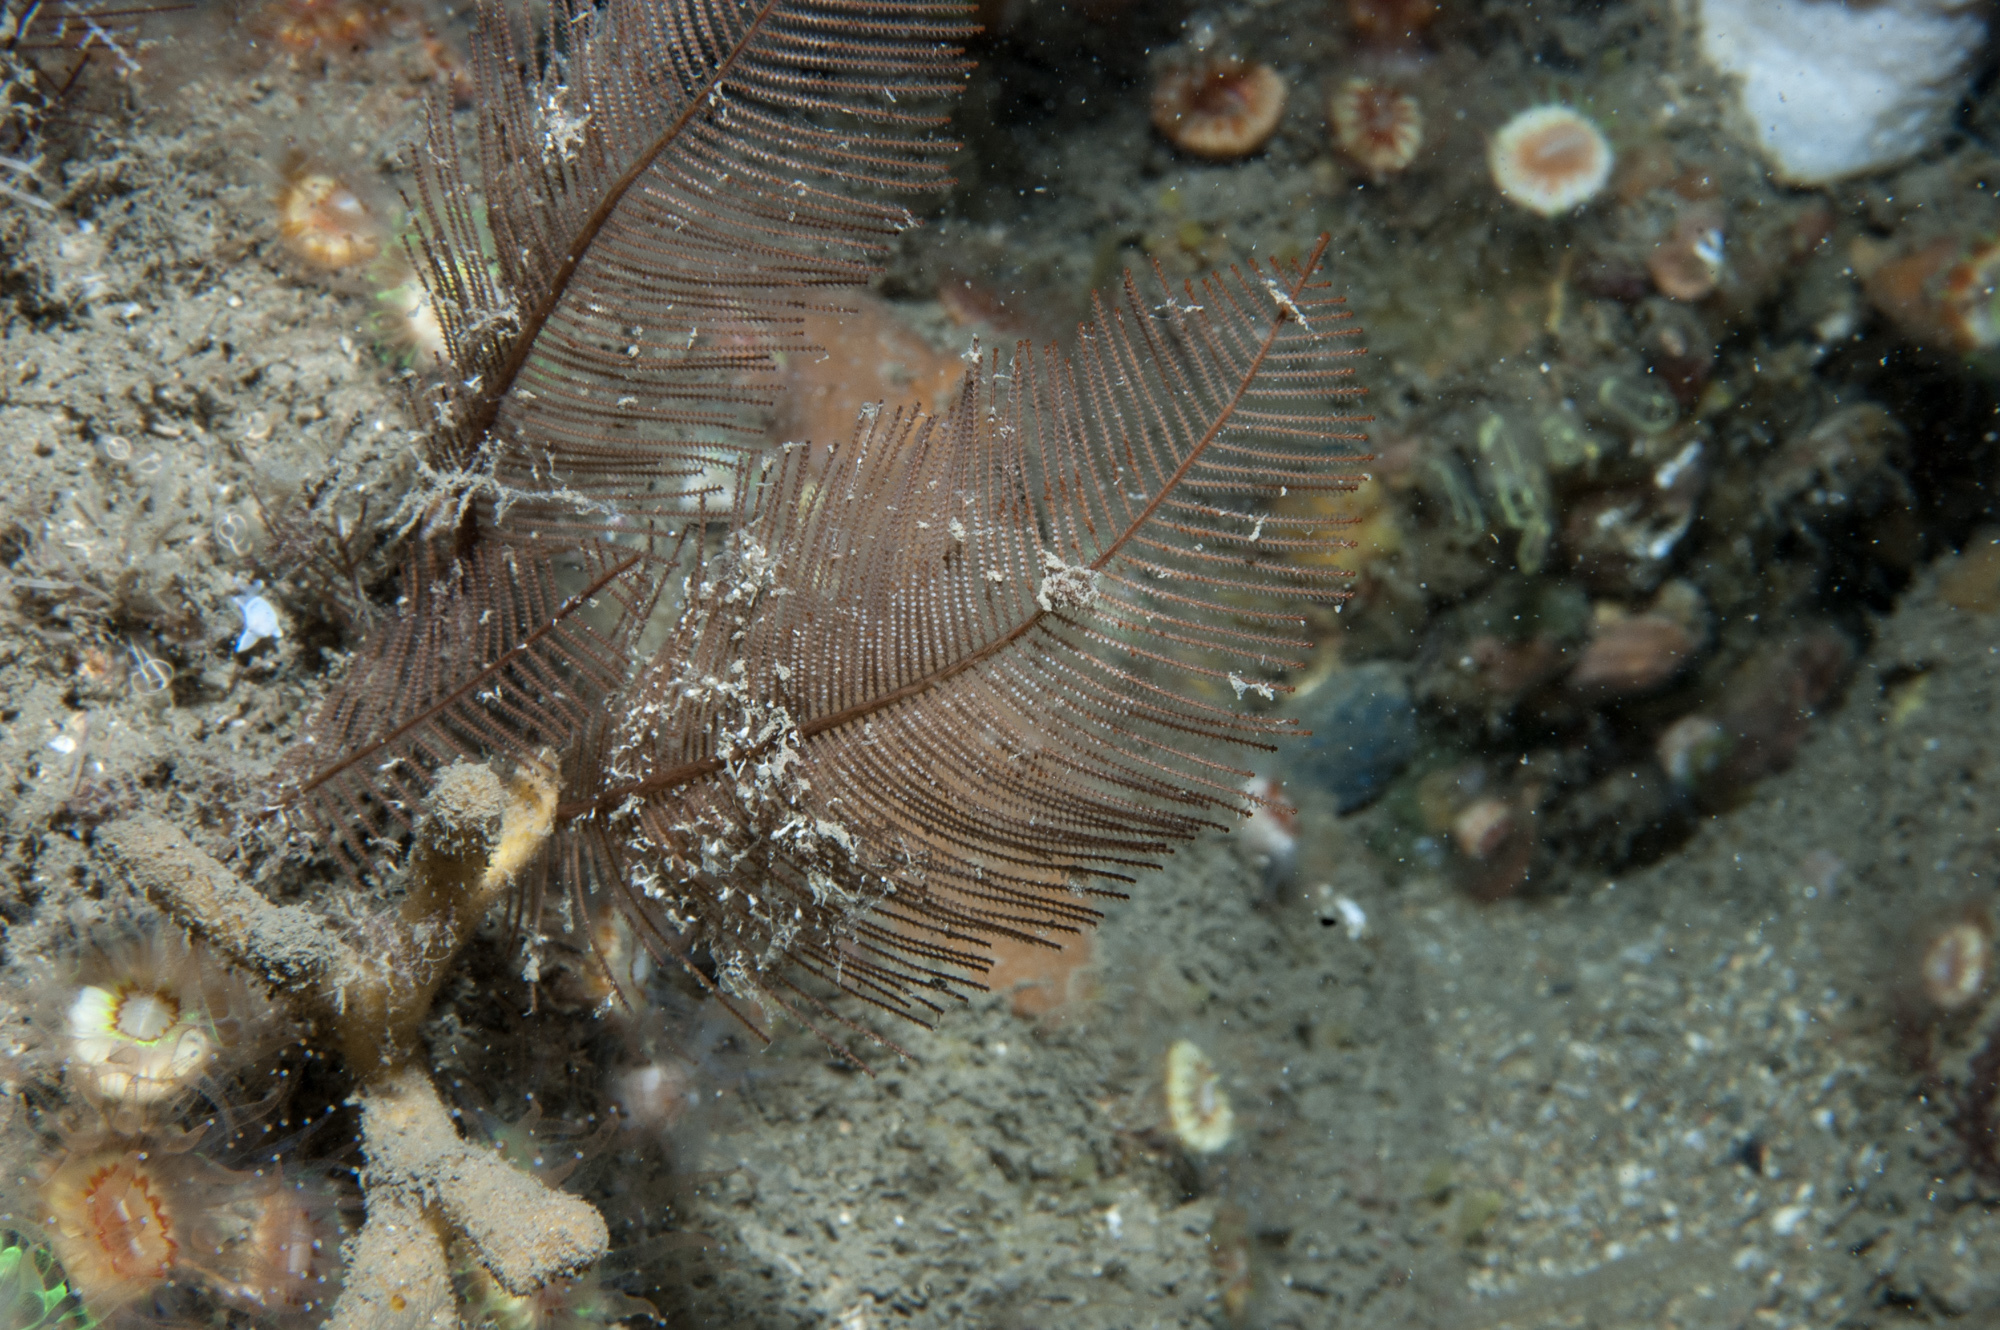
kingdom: Animalia
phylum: Cnidaria
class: Hydrozoa
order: Leptothecata
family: Sertulariidae
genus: Diphasia
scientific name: Diphasia alata
